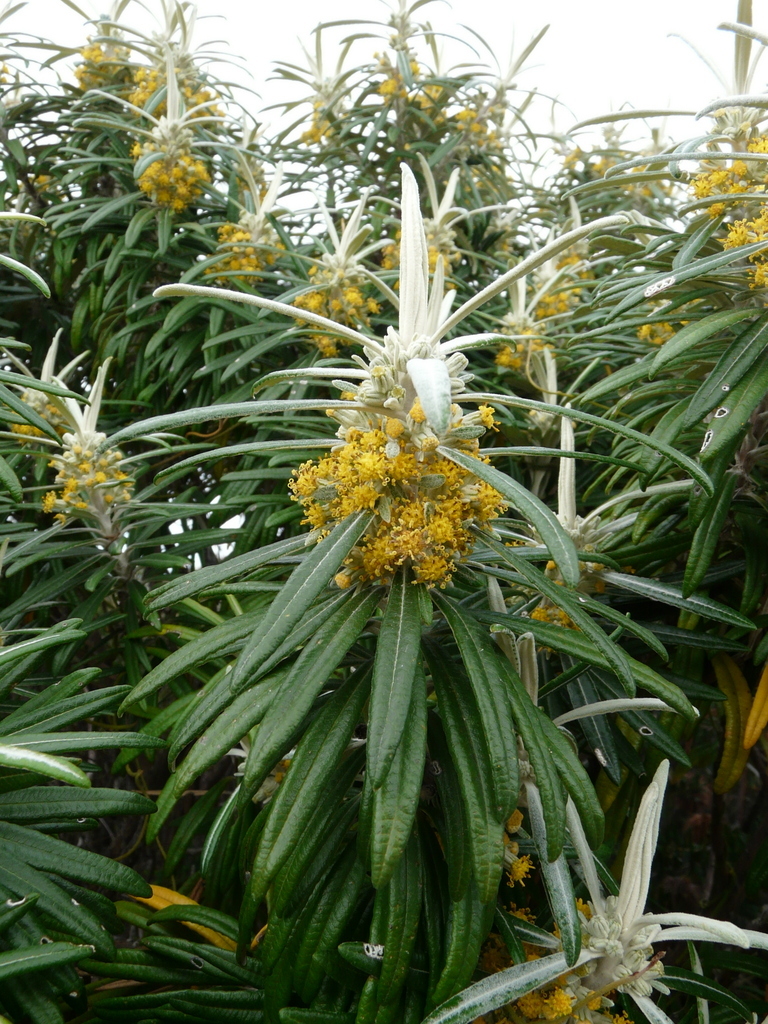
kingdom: Plantae
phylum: Tracheophyta
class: Magnoliopsida
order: Asterales
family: Asteraceae
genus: Bedfordia
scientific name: Bedfordia salicina
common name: Blanketleaf
